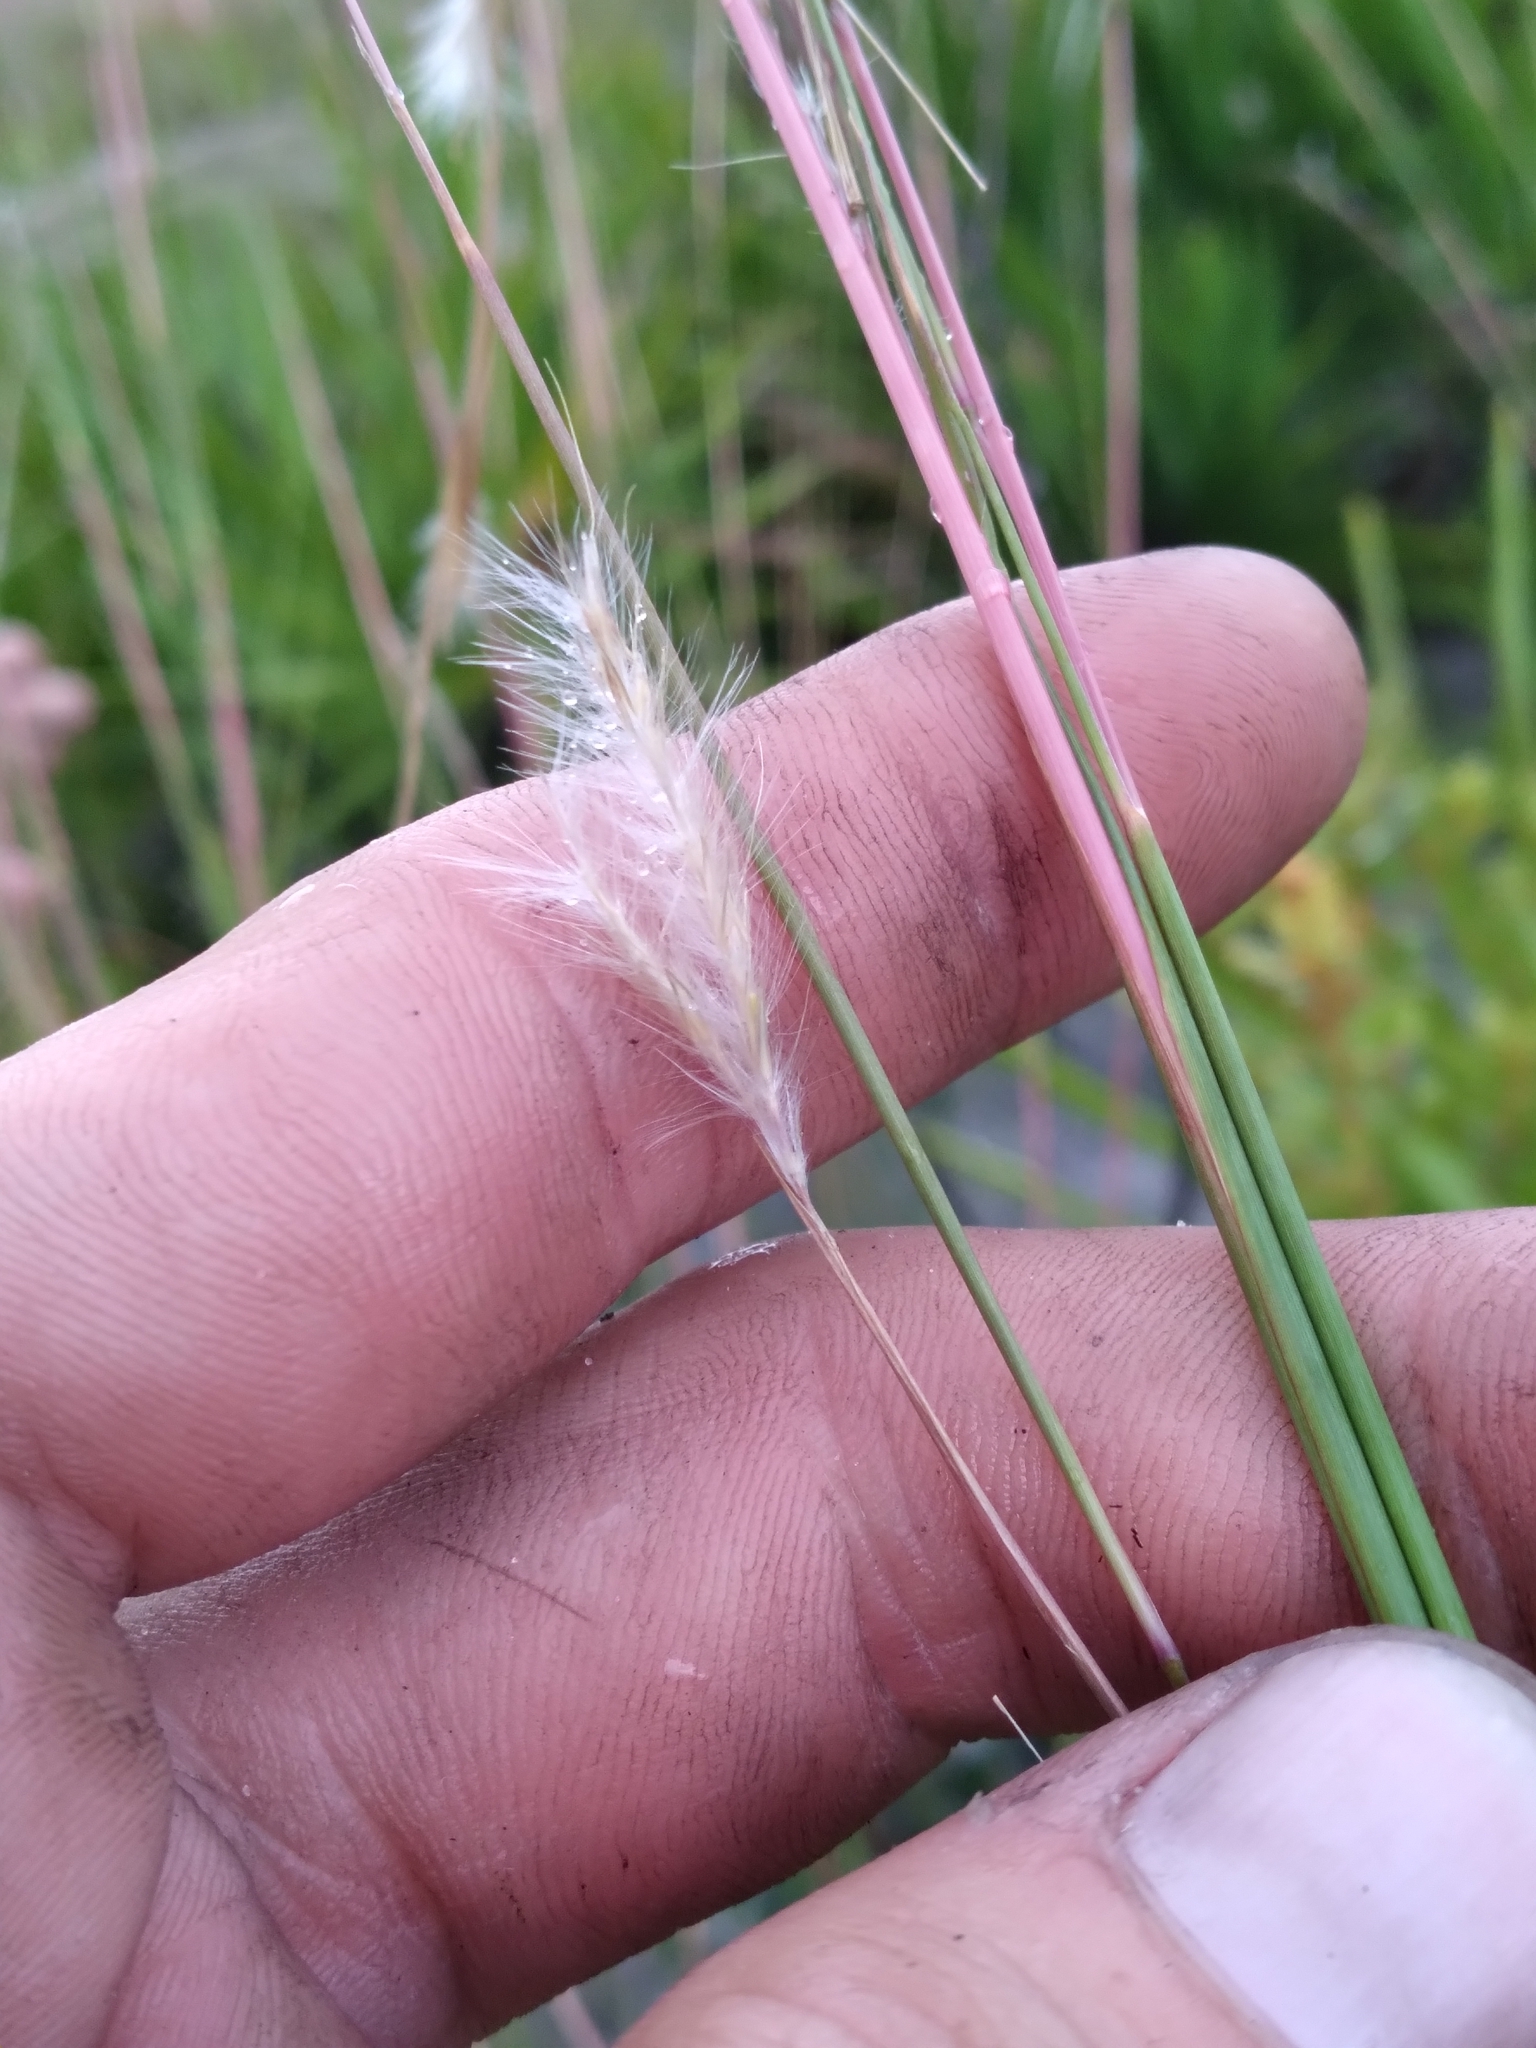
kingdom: Plantae
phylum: Tracheophyta
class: Liliopsida
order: Poales
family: Poaceae
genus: Andropogon
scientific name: Andropogon cumulicola
